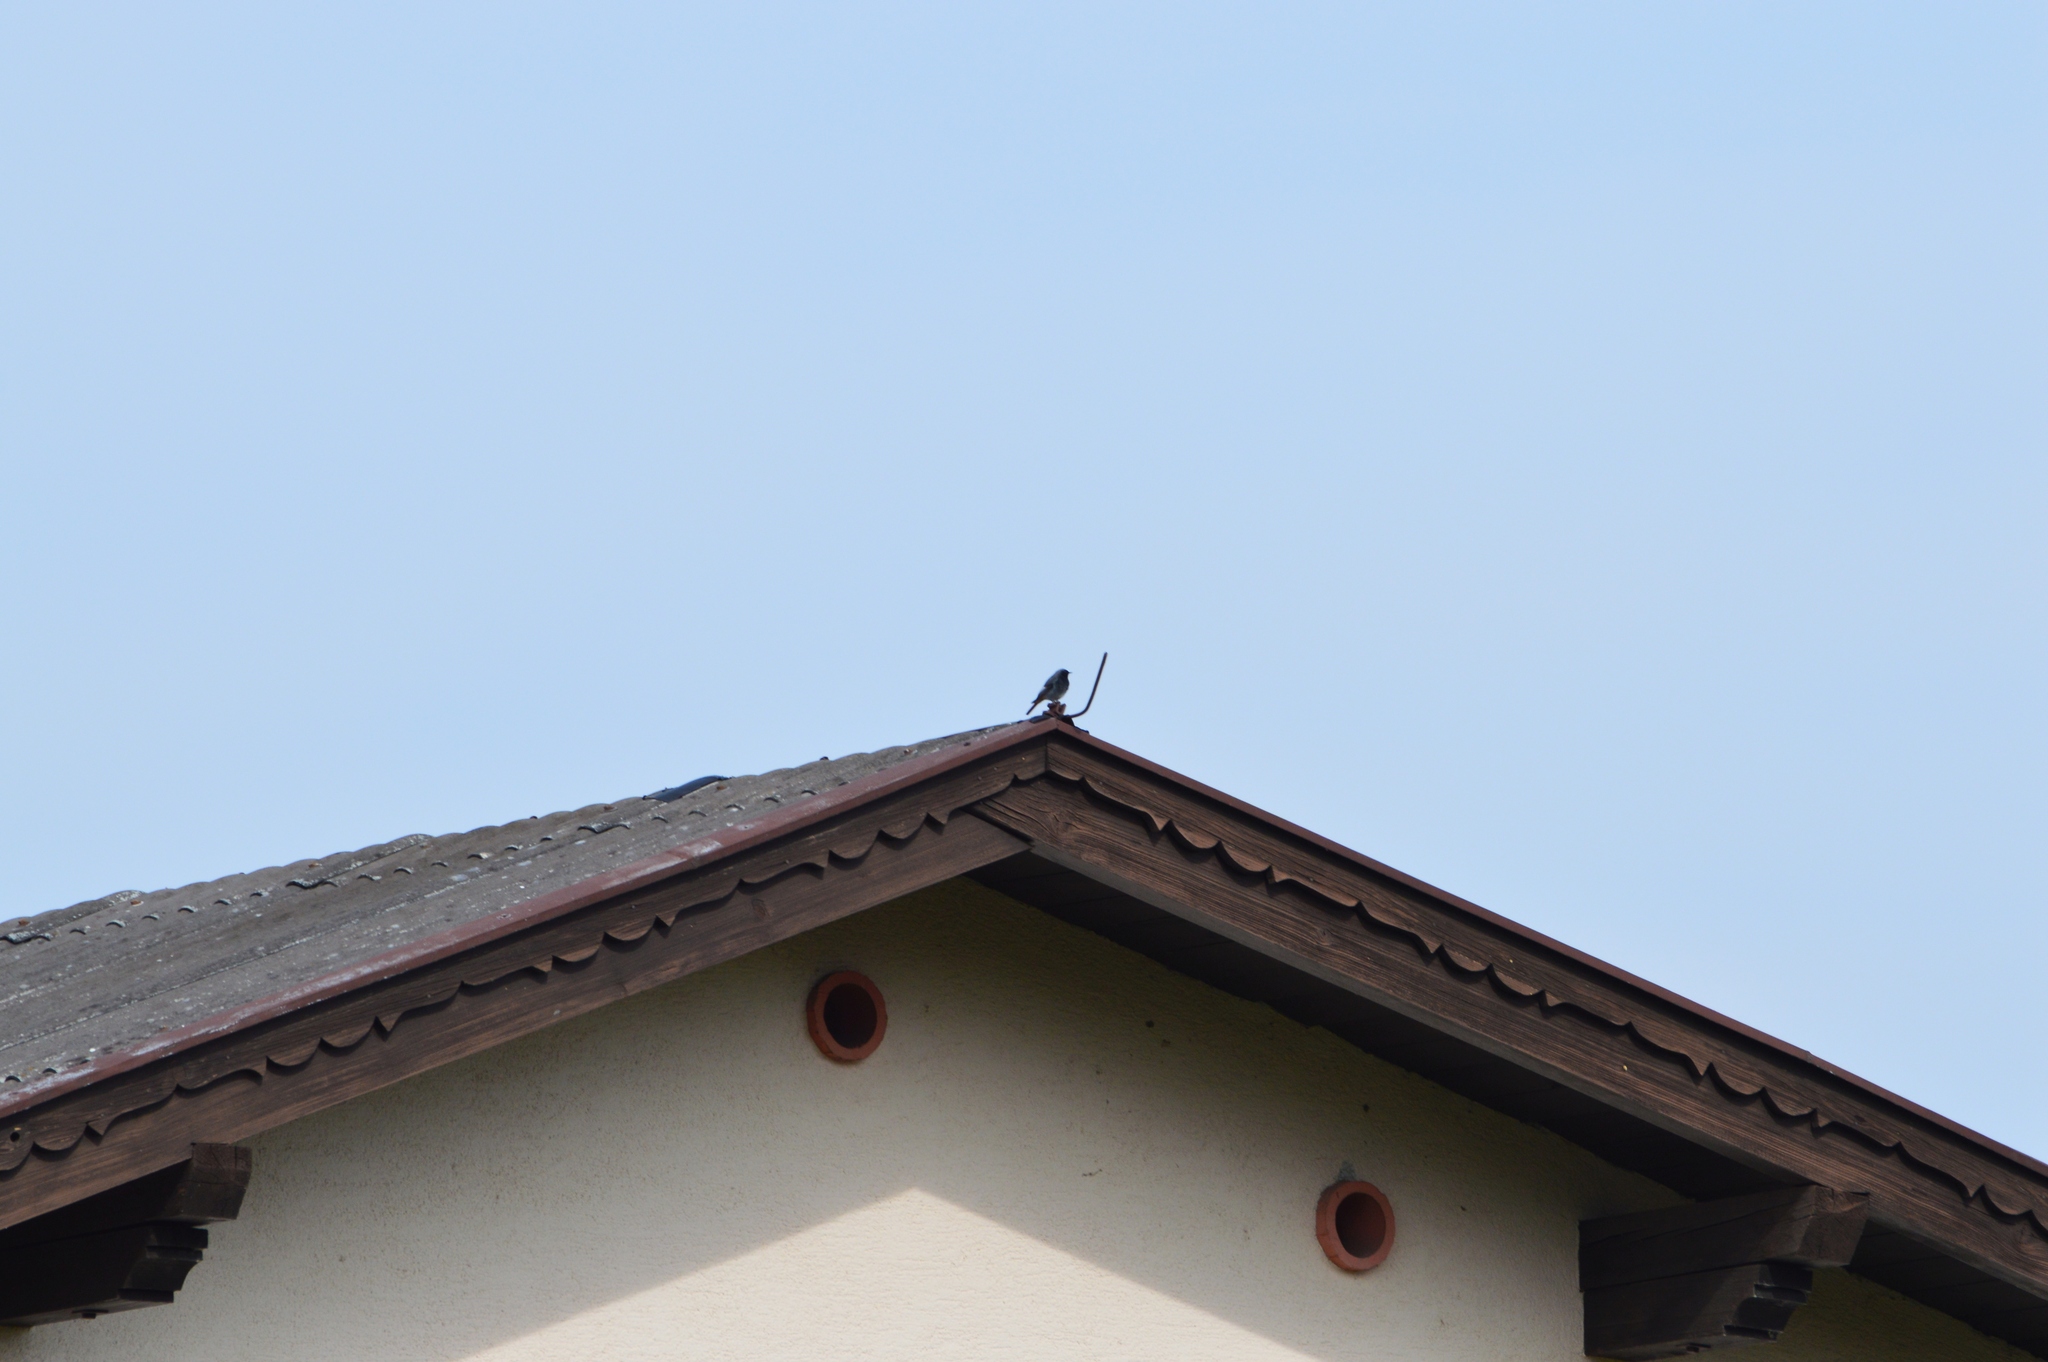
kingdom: Animalia
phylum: Chordata
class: Aves
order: Passeriformes
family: Muscicapidae
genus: Phoenicurus
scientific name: Phoenicurus ochruros
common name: Black redstart
